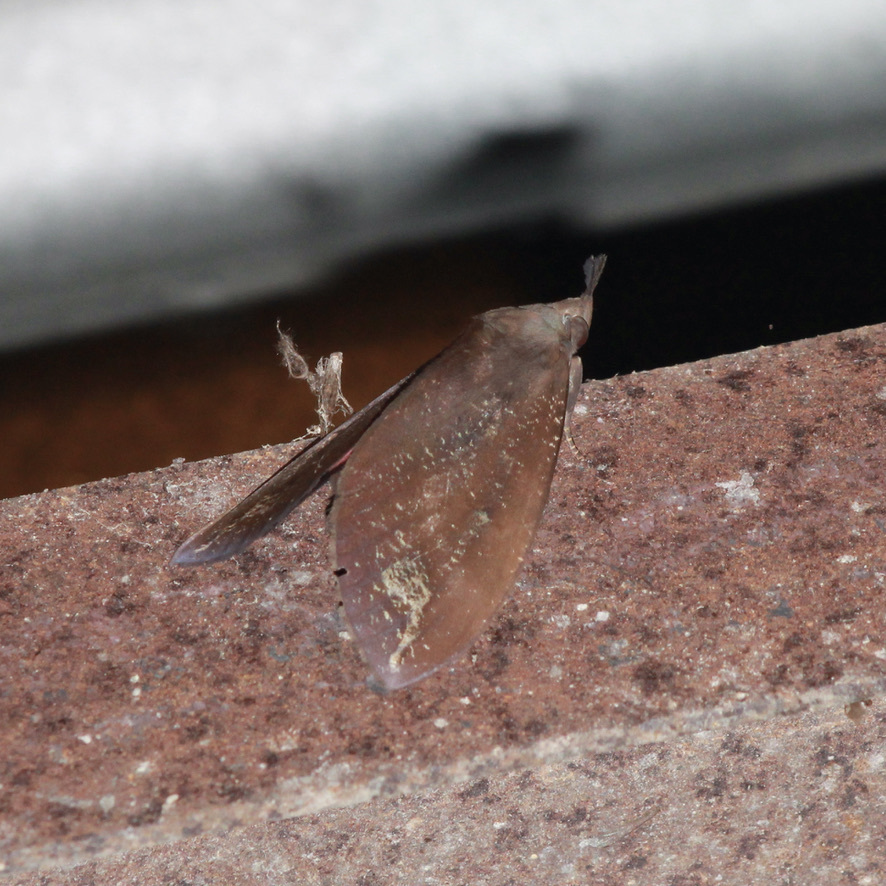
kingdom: Animalia
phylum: Arthropoda
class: Insecta
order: Lepidoptera
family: Erebidae
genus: Tetrisia
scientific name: Tetrisia florigera
